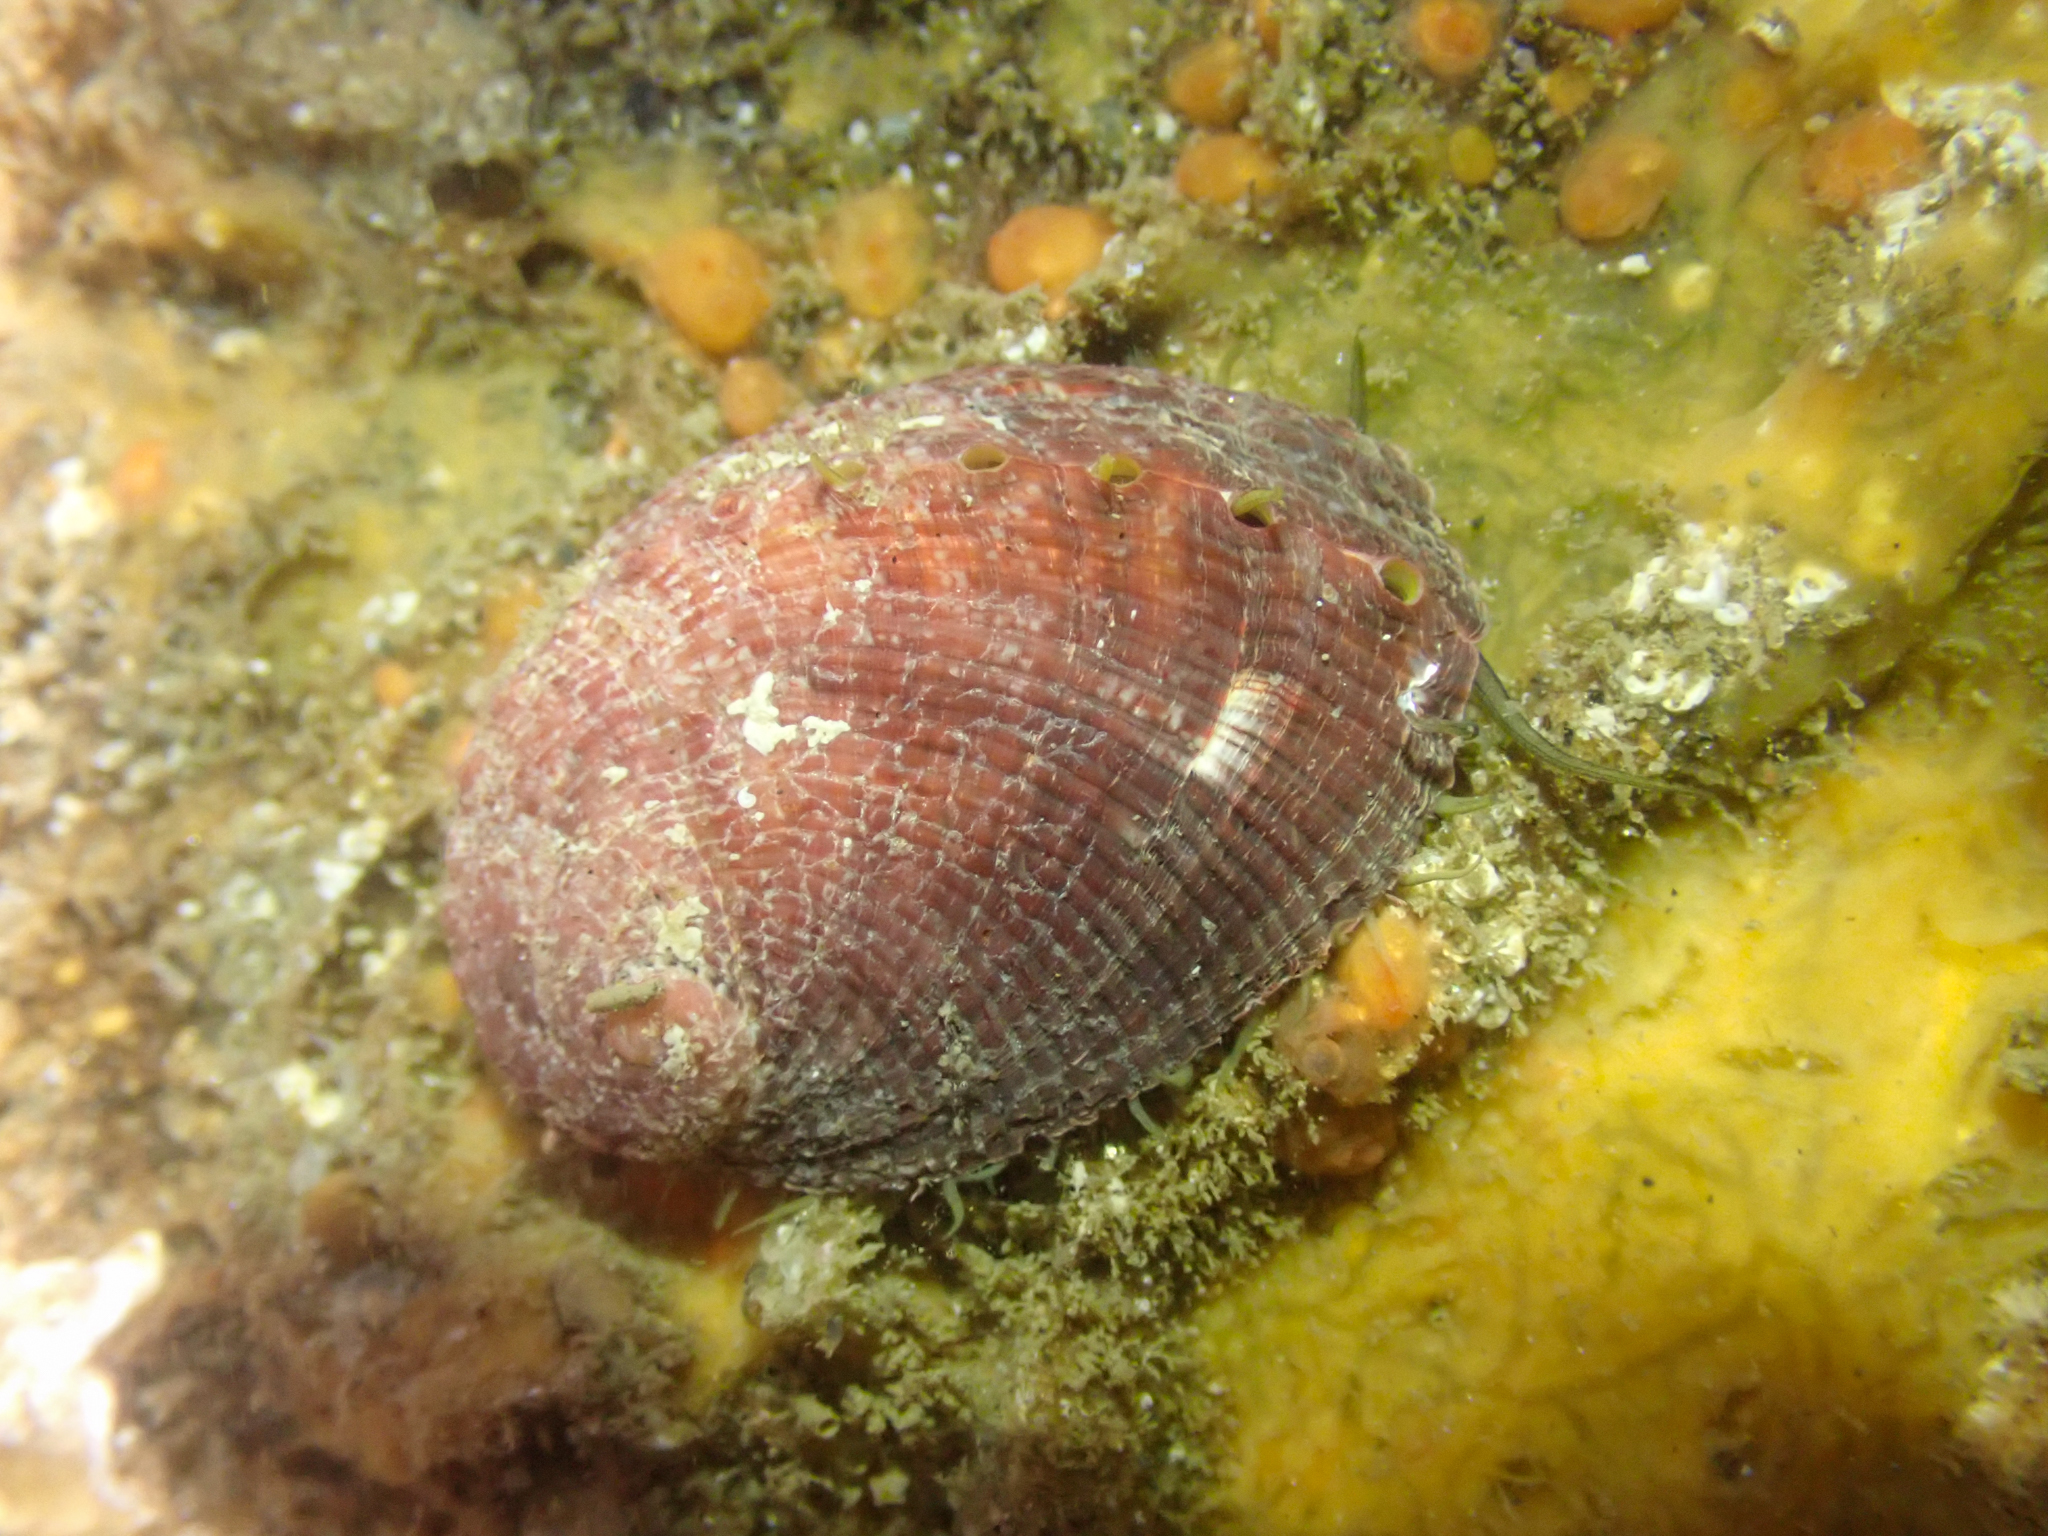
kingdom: Animalia
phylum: Mollusca
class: Gastropoda
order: Lepetellida
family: Haliotidae
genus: Haliotis
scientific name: Haliotis fulgens
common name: Green abalone
